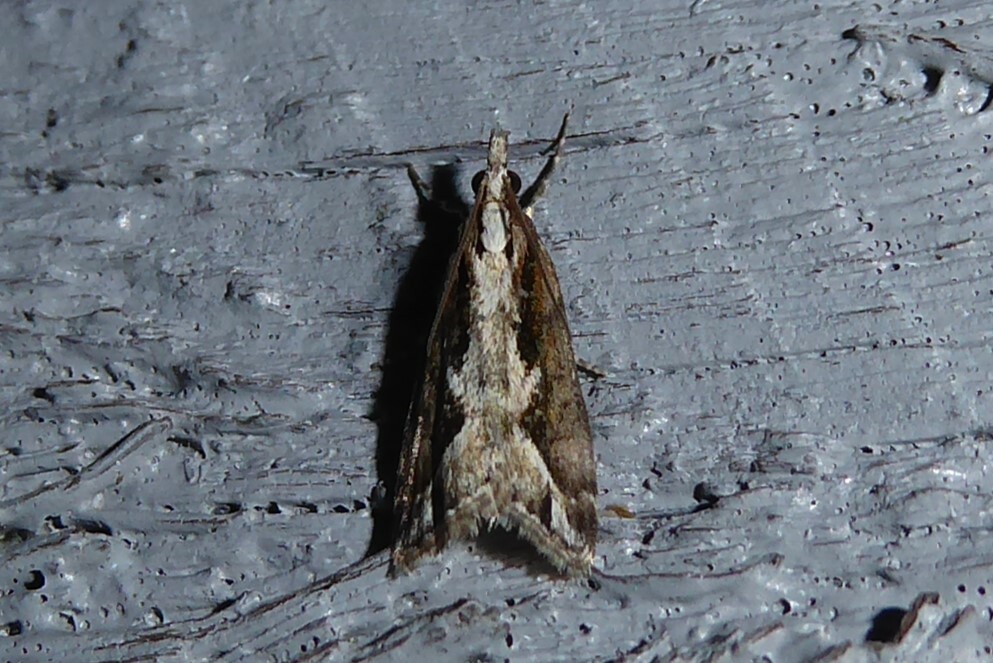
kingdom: Animalia
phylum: Arthropoda
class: Insecta
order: Lepidoptera
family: Crambidae
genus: Eudonia
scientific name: Eudonia steropaea
